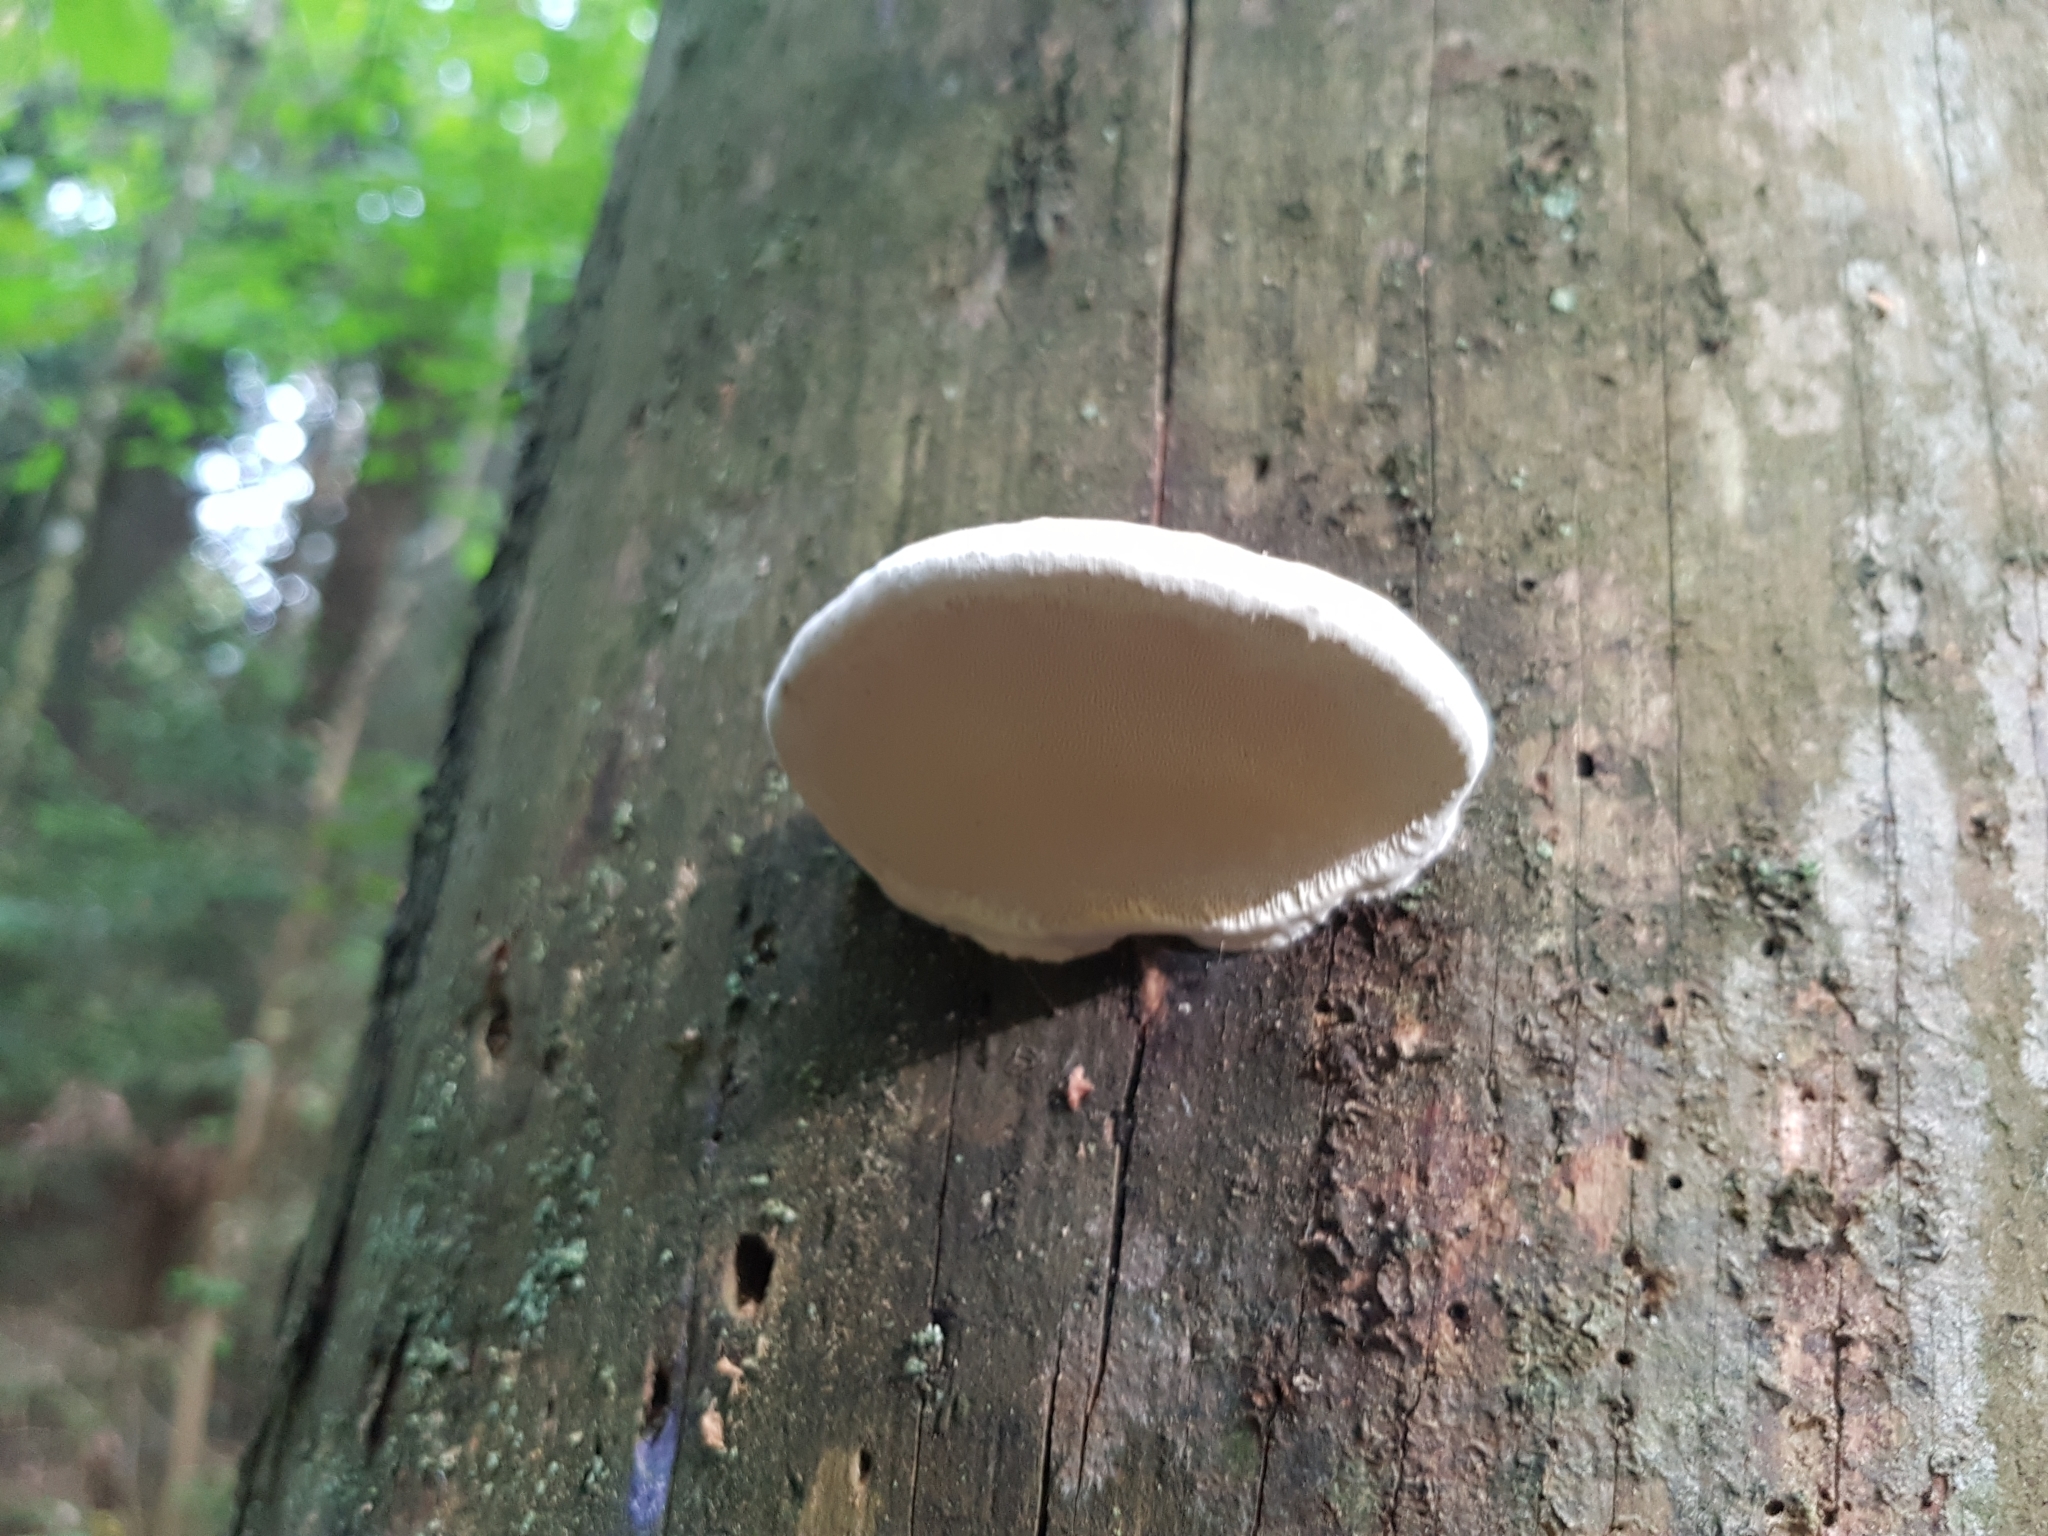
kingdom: Fungi
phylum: Basidiomycota
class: Agaricomycetes
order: Polyporales
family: Fomitopsidaceae
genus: Fomitopsis
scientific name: Fomitopsis pinicola
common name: Red-belted bracket
